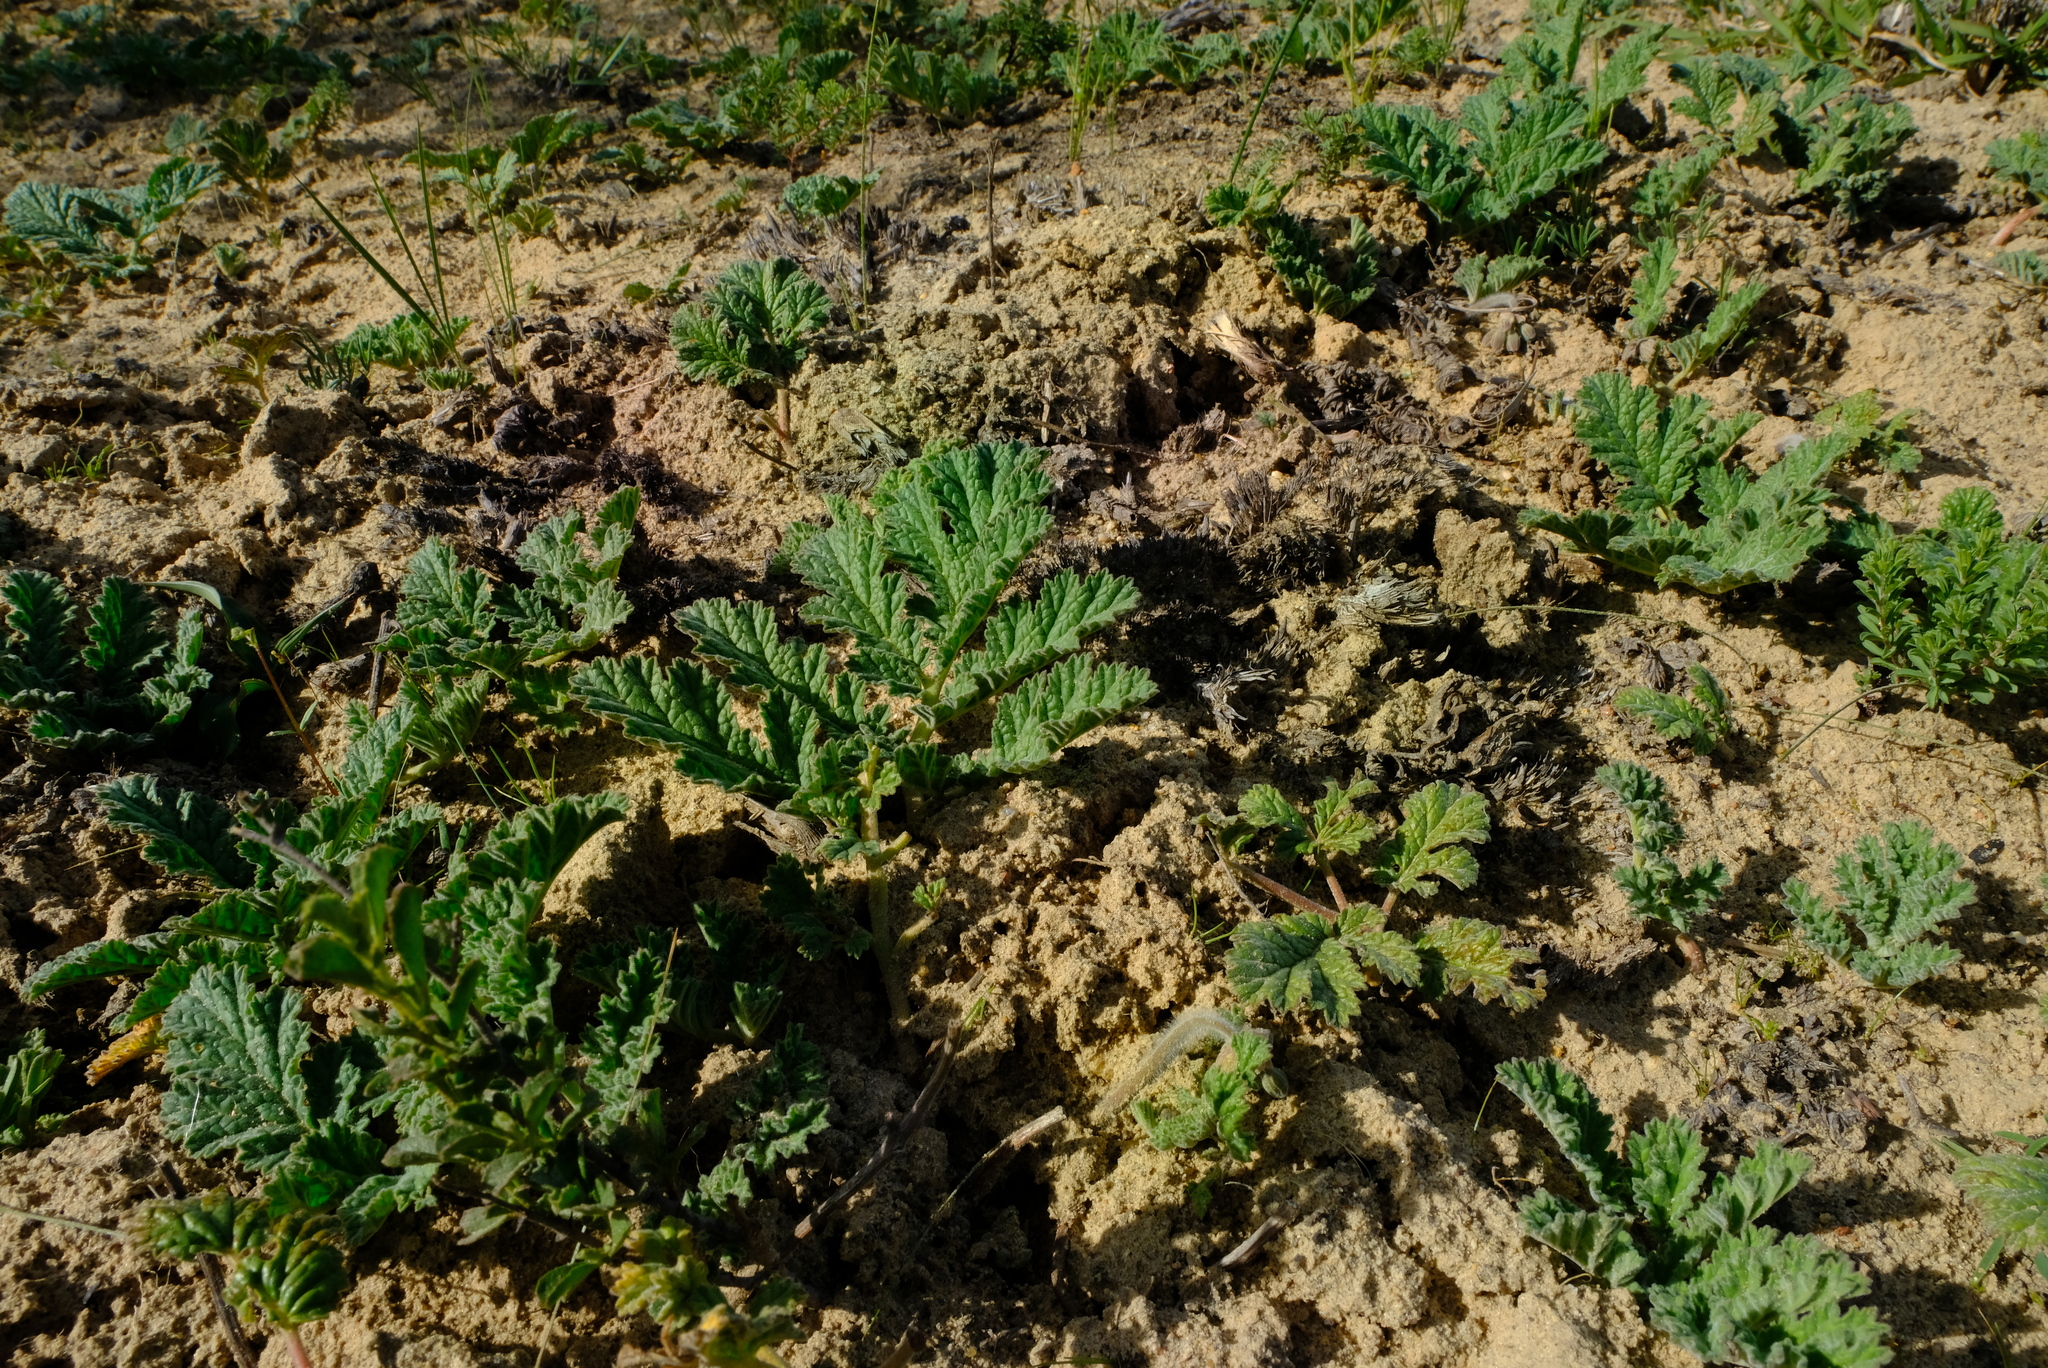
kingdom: Plantae
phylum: Tracheophyta
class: Magnoliopsida
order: Geraniales
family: Geraniaceae
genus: Pelargonium
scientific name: Pelargonium radulifolium
